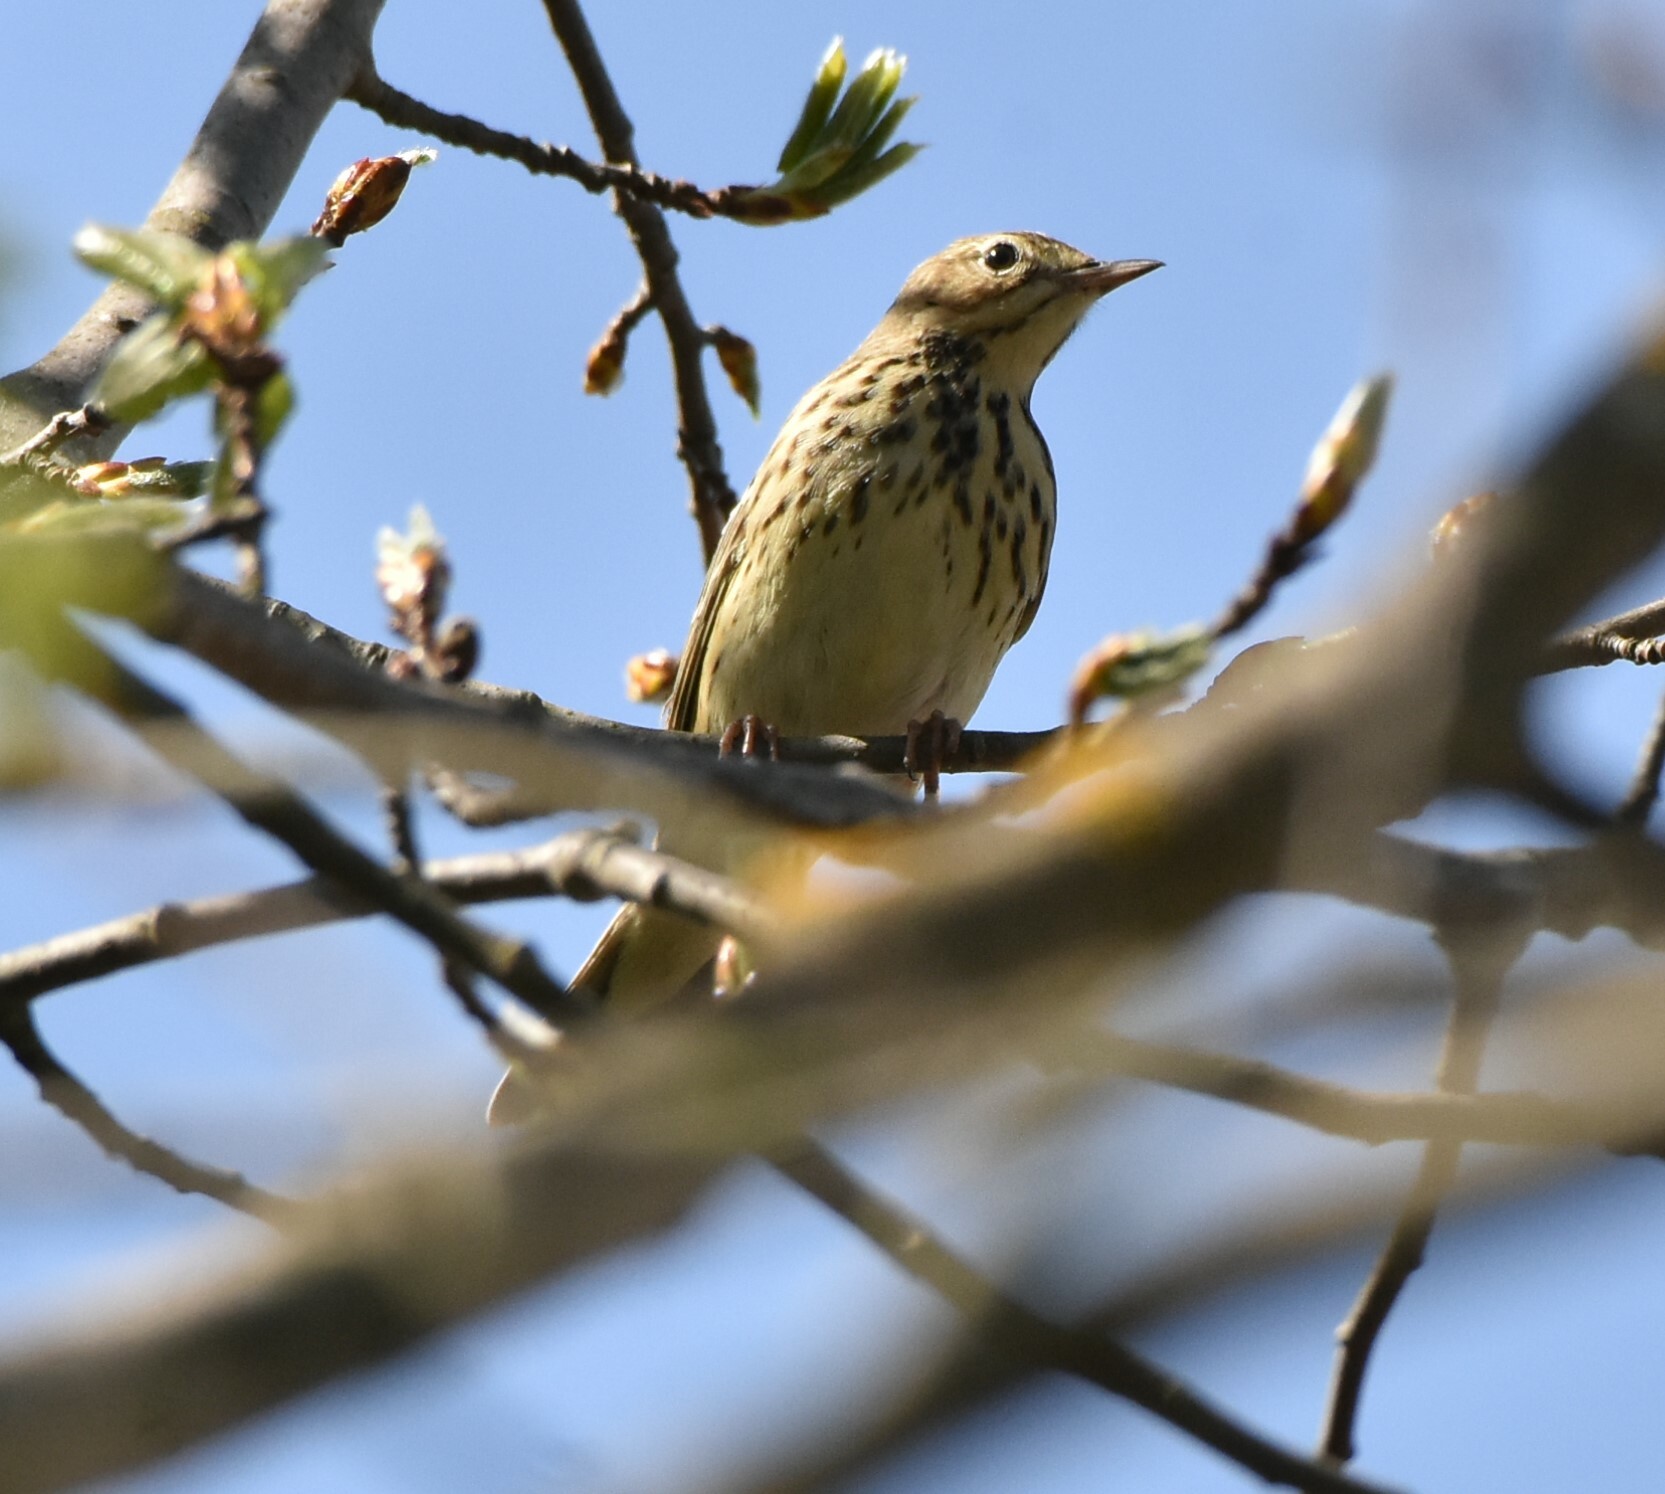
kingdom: Animalia
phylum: Chordata
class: Aves
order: Passeriformes
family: Motacillidae
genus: Anthus
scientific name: Anthus trivialis
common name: Tree pipit
